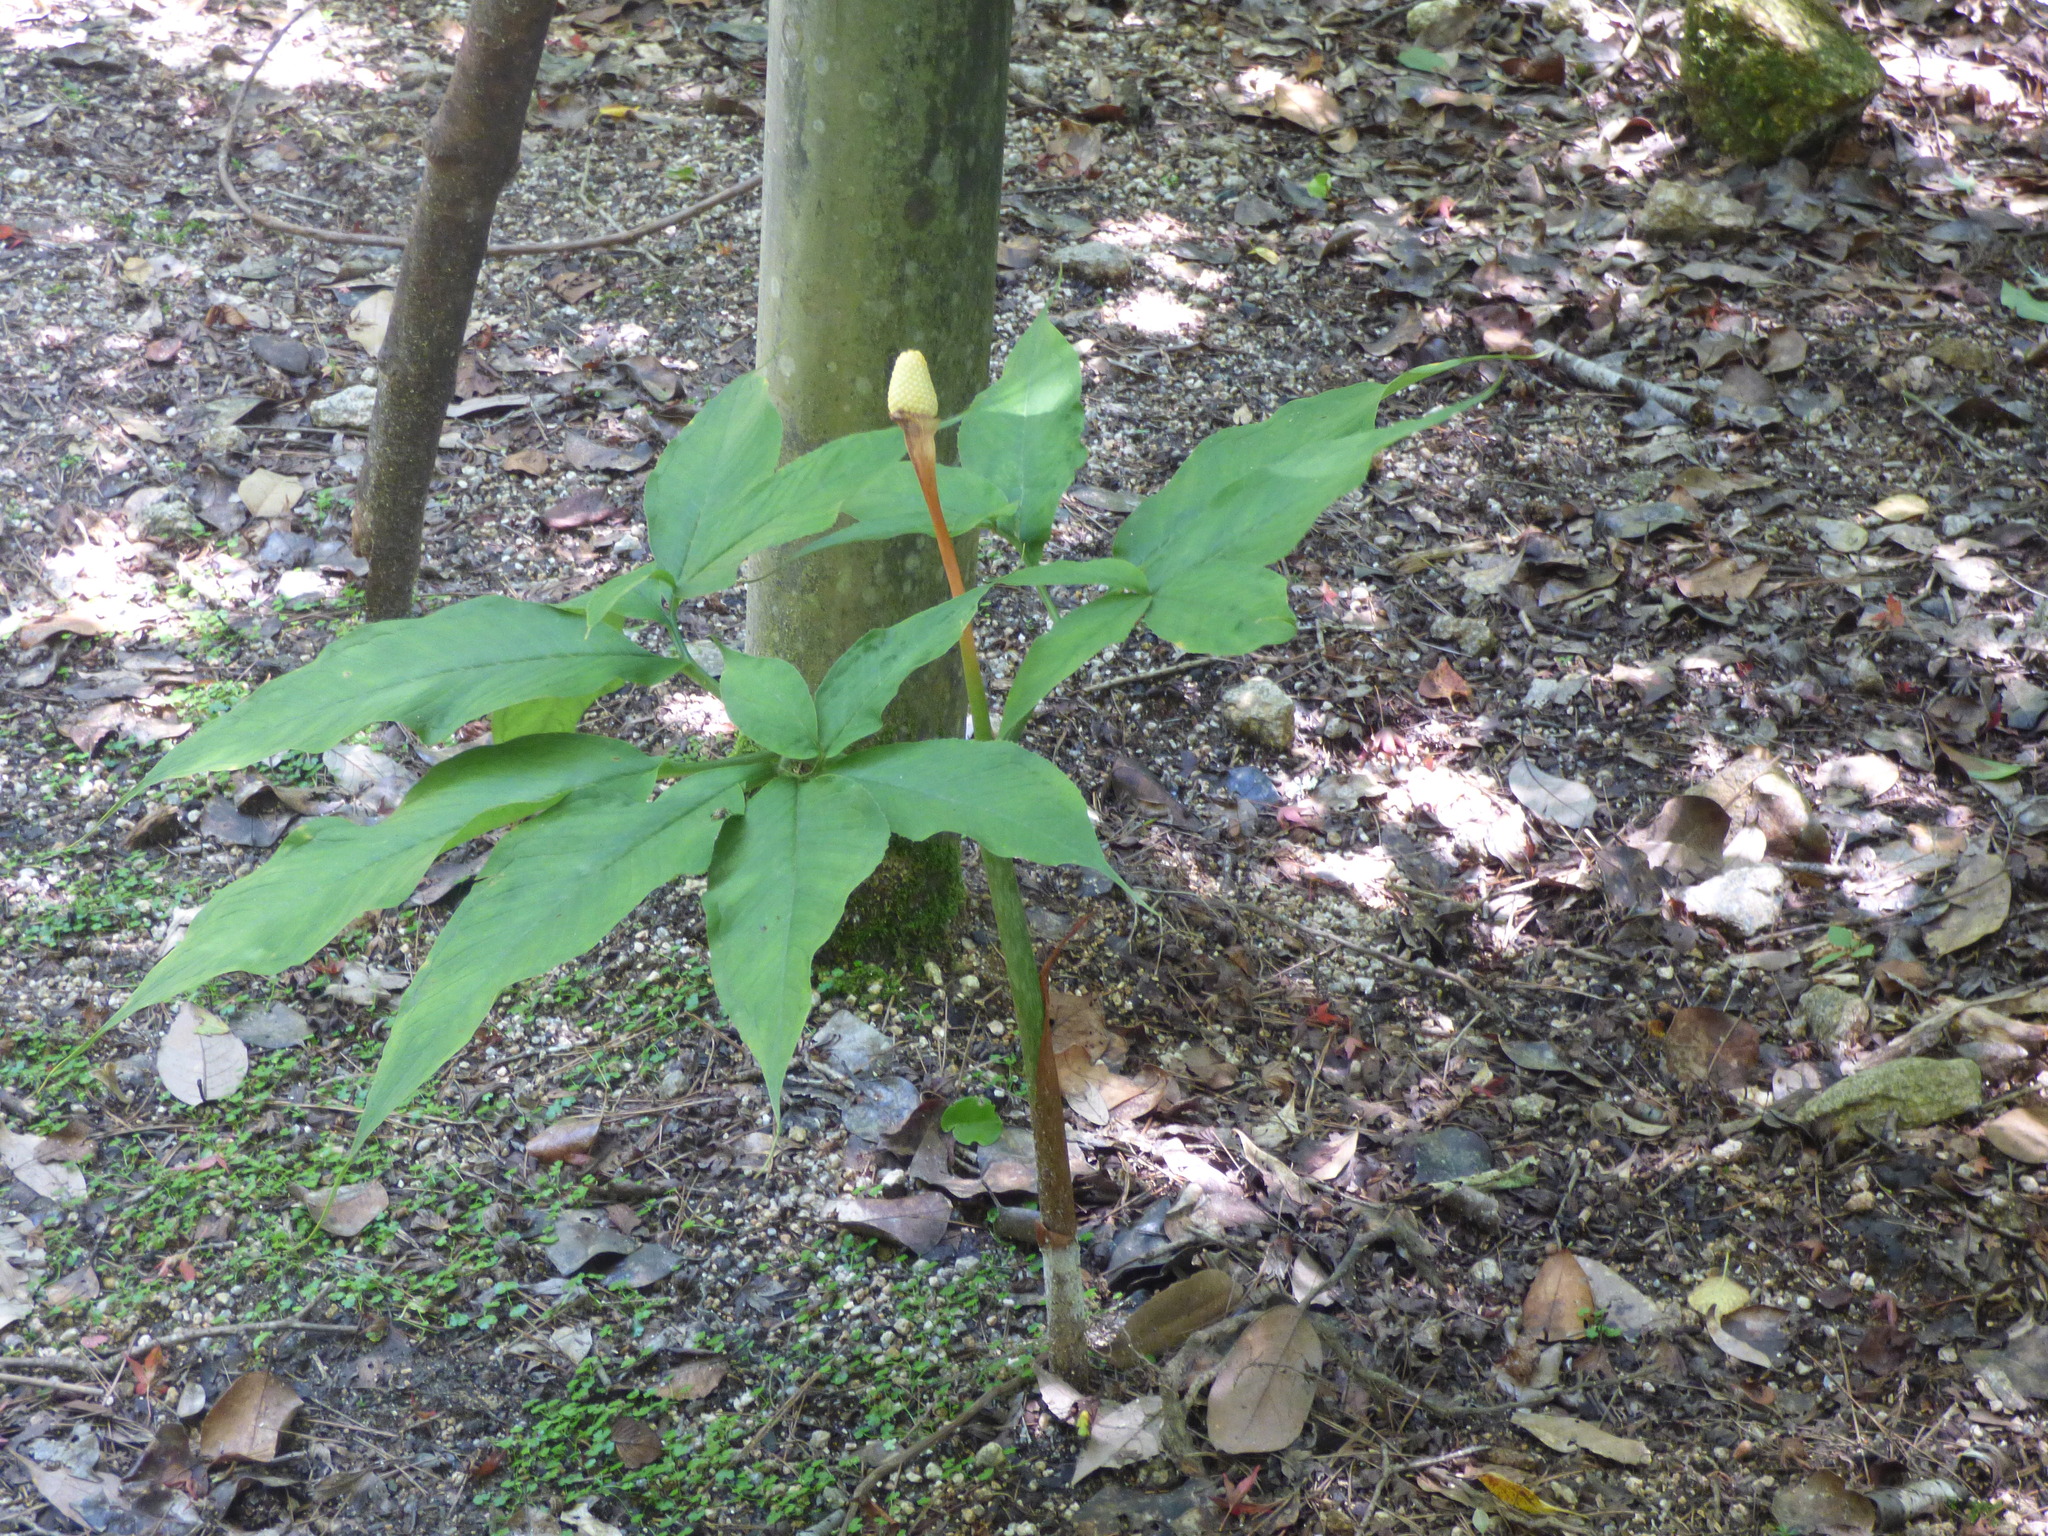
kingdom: Plantae
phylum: Tracheophyta
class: Liliopsida
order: Alismatales
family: Araceae
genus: Arisaema
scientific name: Arisaema tosaense
